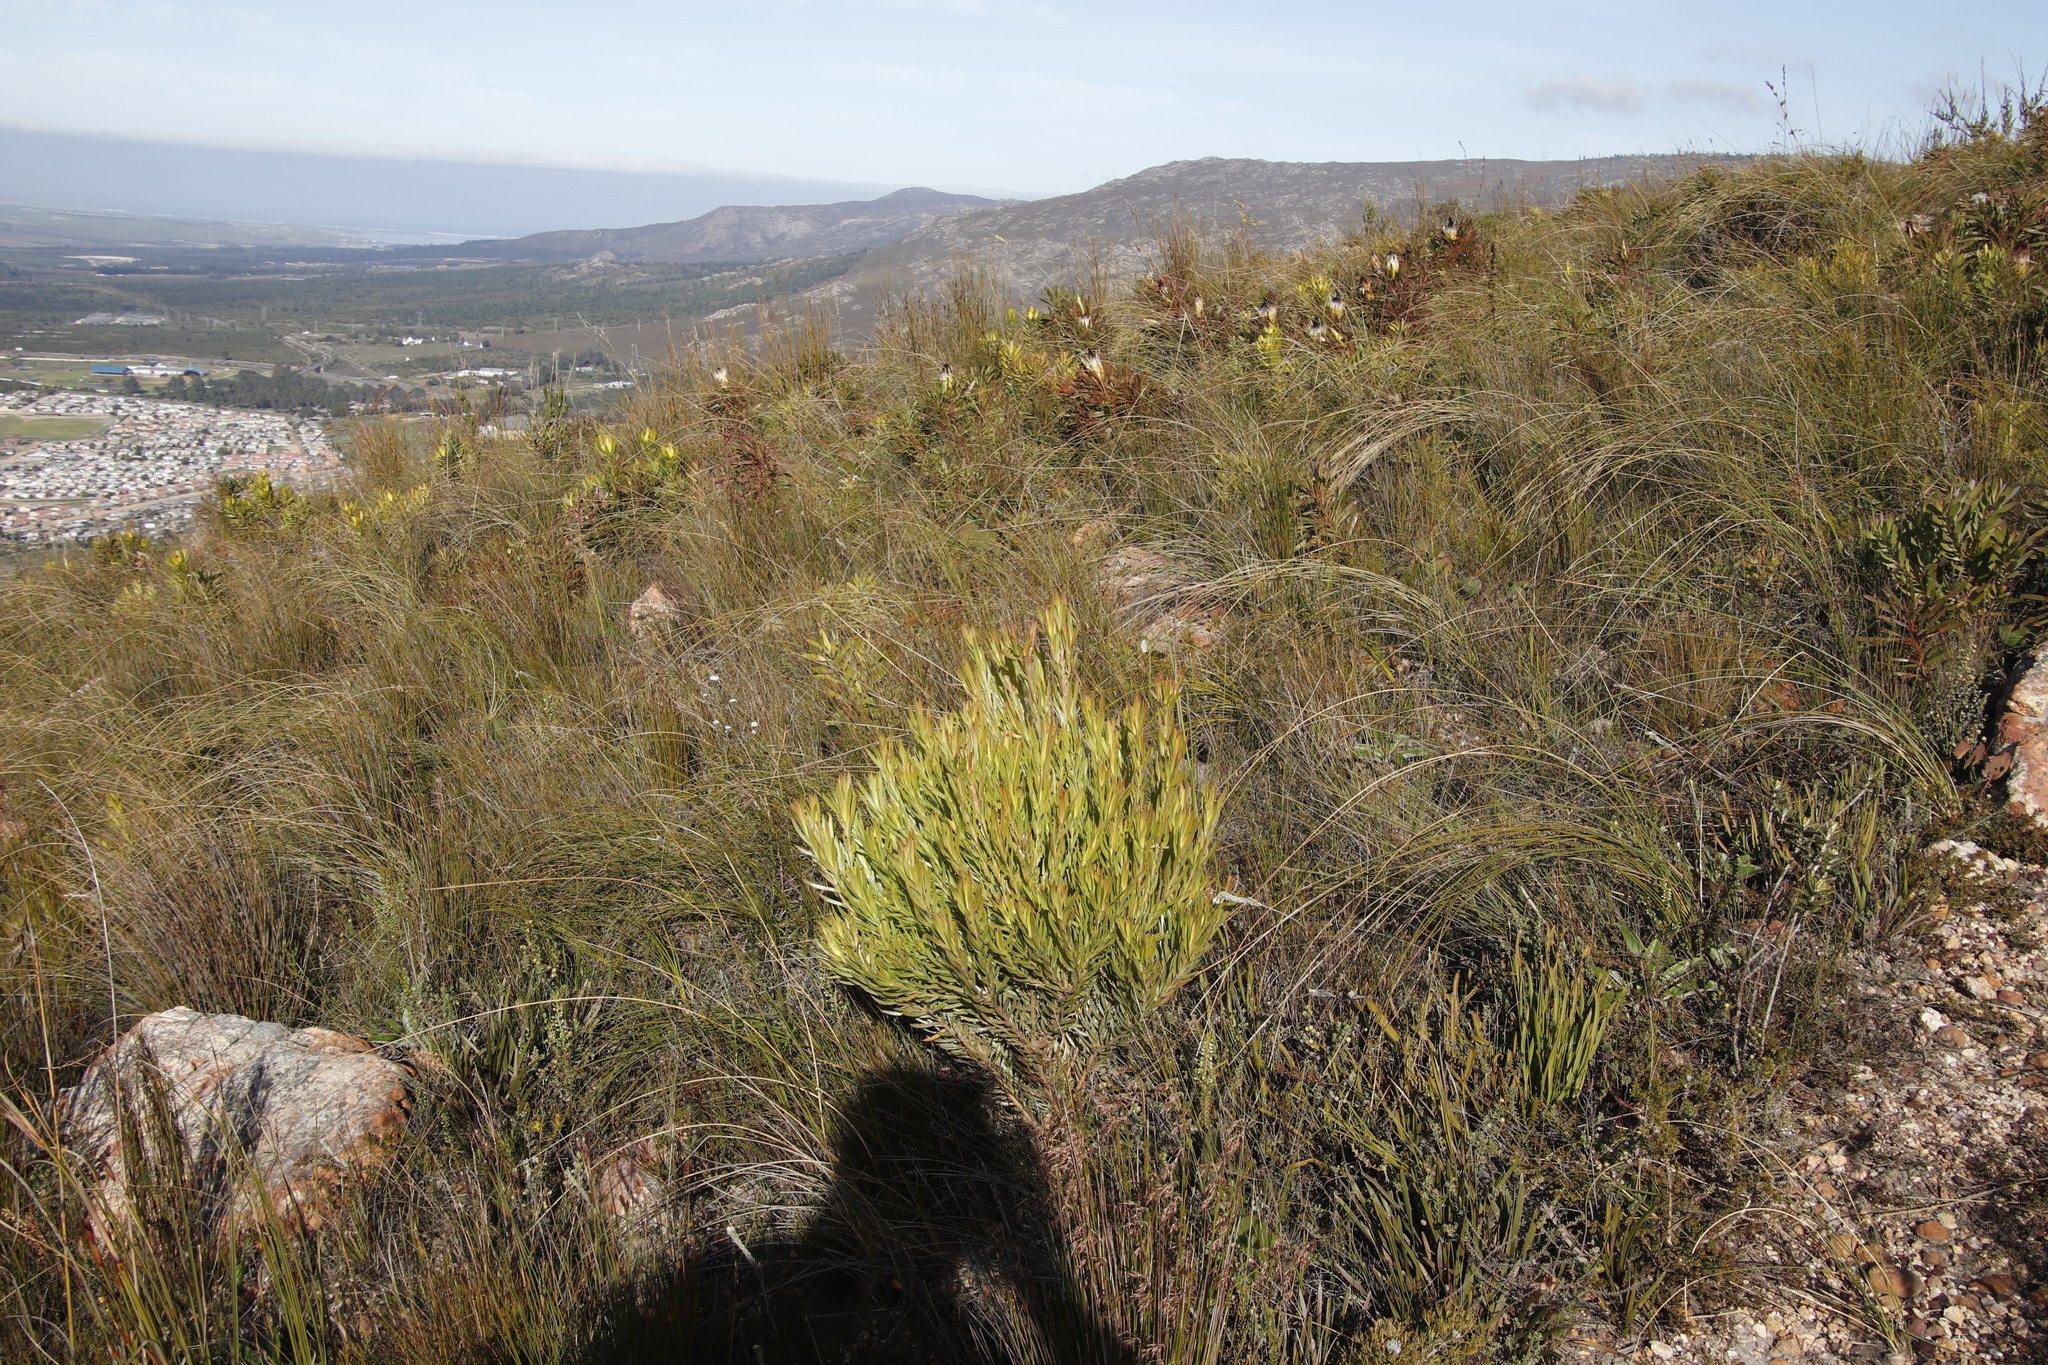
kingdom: Plantae
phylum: Tracheophyta
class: Magnoliopsida
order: Proteales
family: Proteaceae
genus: Leucadendron
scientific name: Leucadendron xanthoconus
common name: Sickle-leaf conebush
